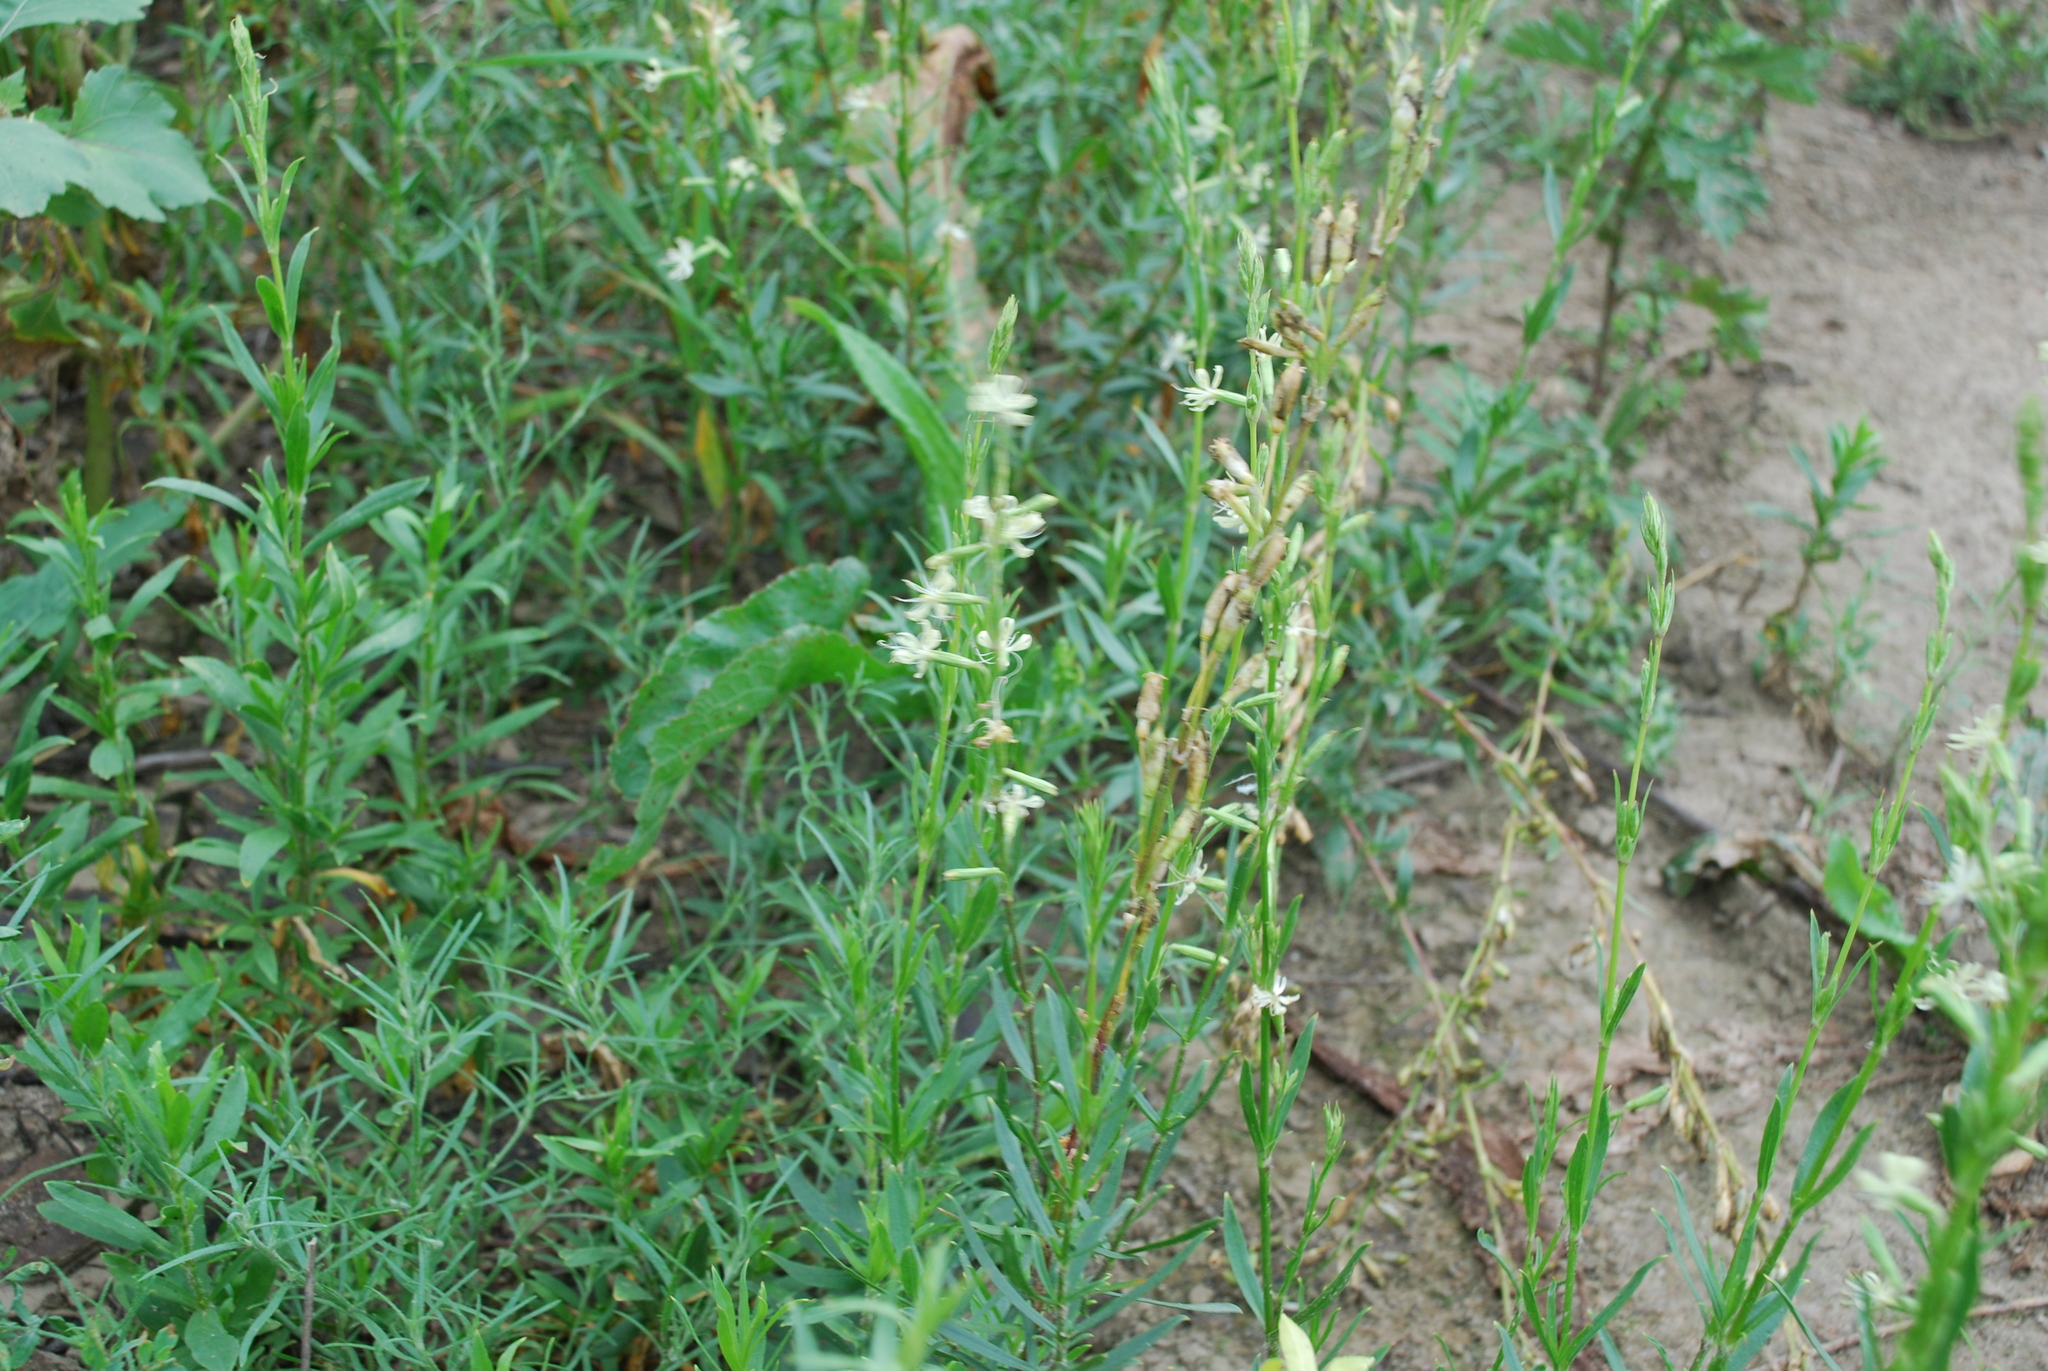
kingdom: Plantae
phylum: Tracheophyta
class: Magnoliopsida
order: Caryophyllales
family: Caryophyllaceae
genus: Silene
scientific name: Silene tatarica
